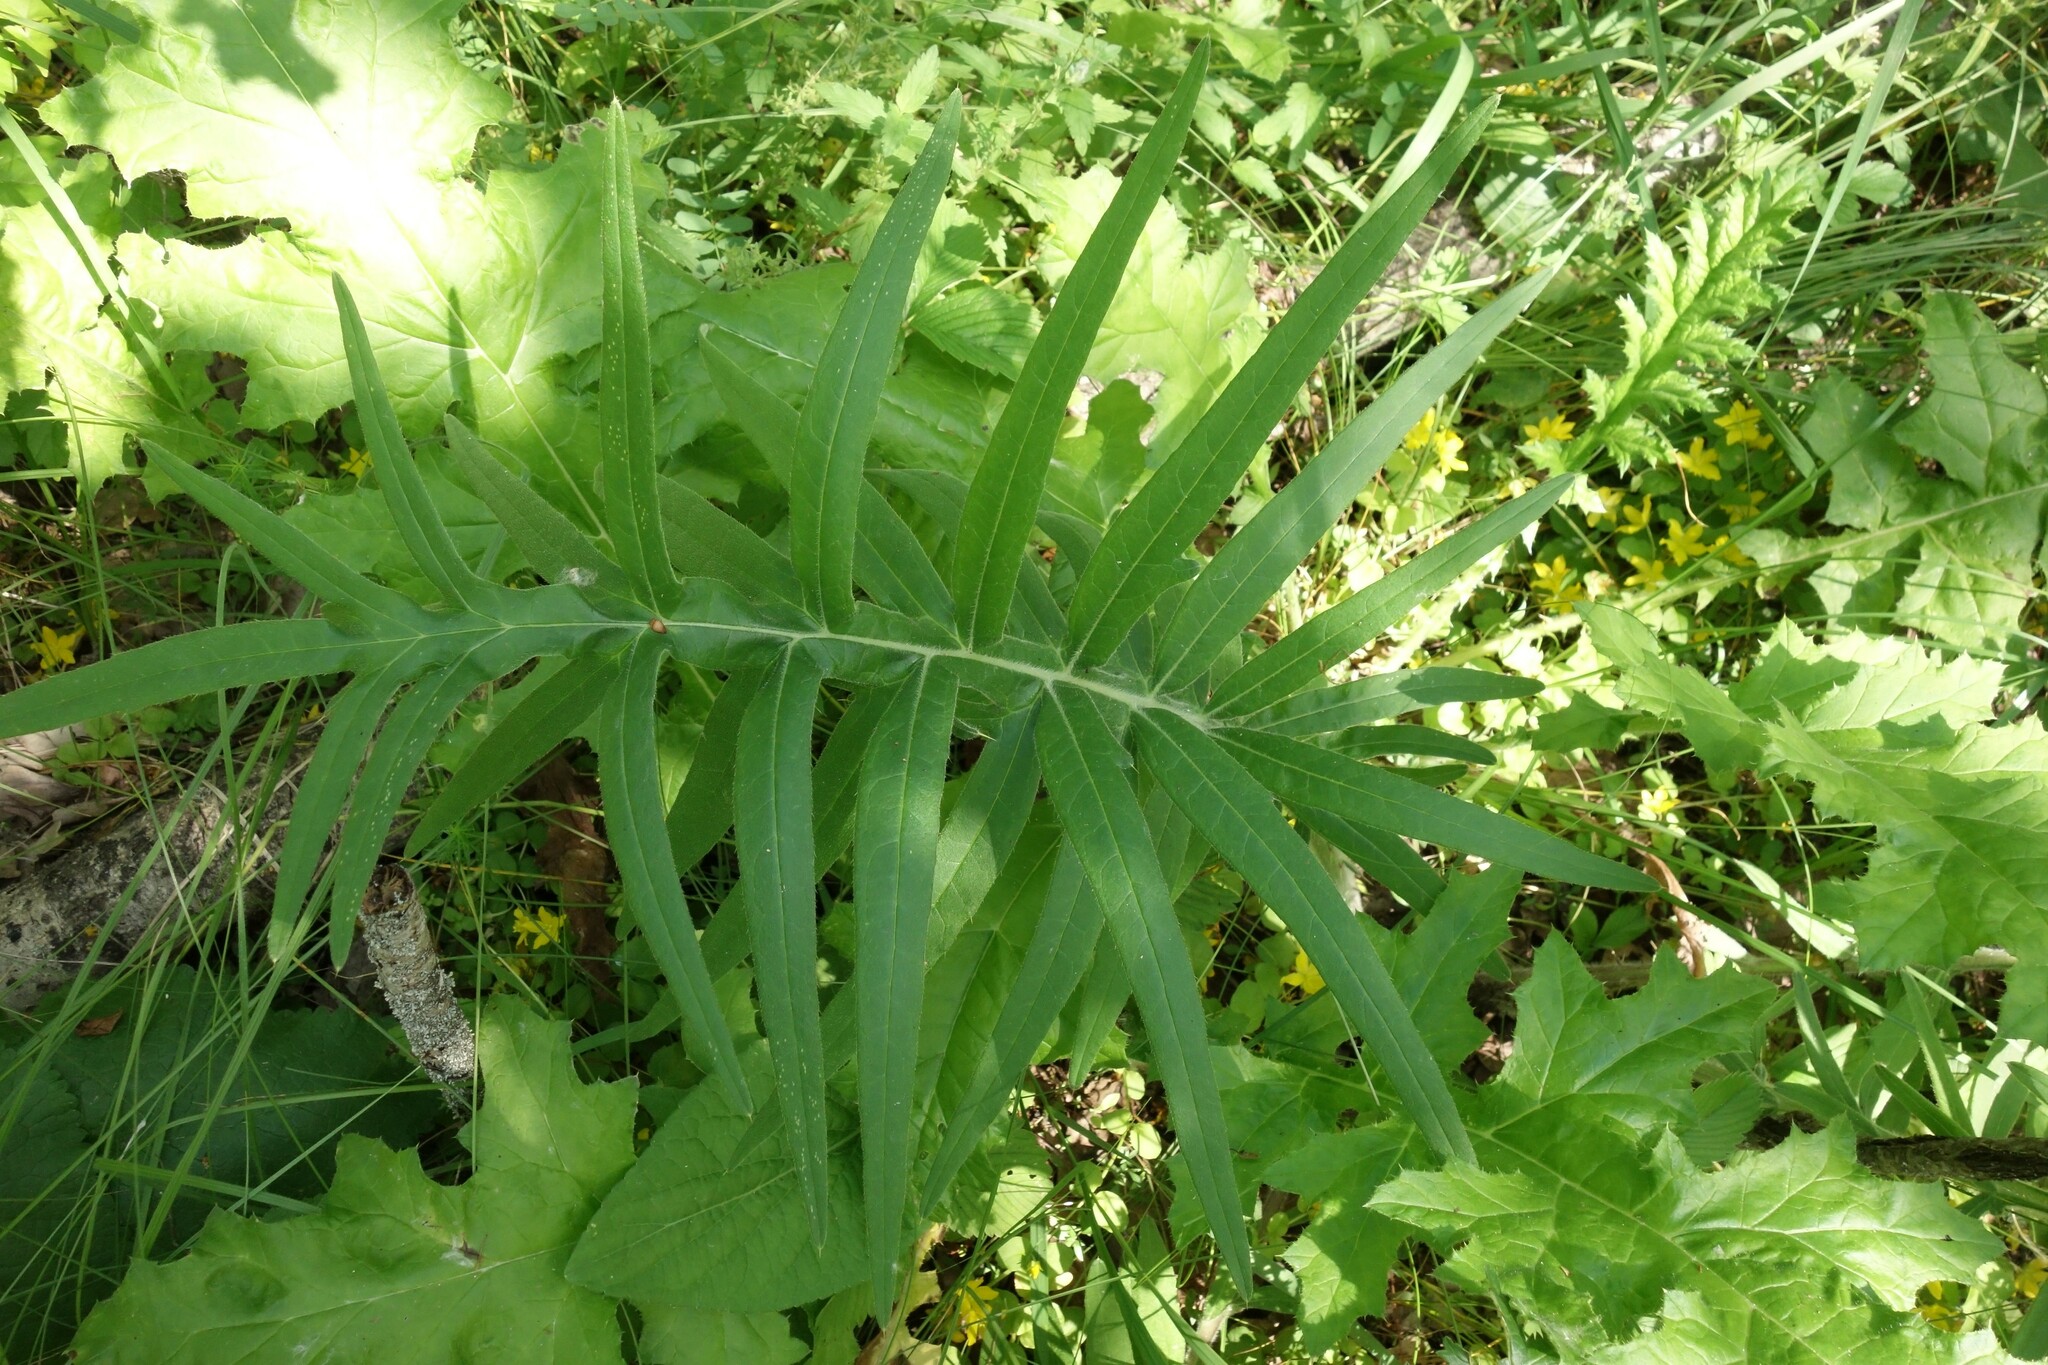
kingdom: Plantae
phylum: Tracheophyta
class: Magnoliopsida
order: Asterales
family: Asteraceae
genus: Lophiolepis
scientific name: Lophiolepis decussata
